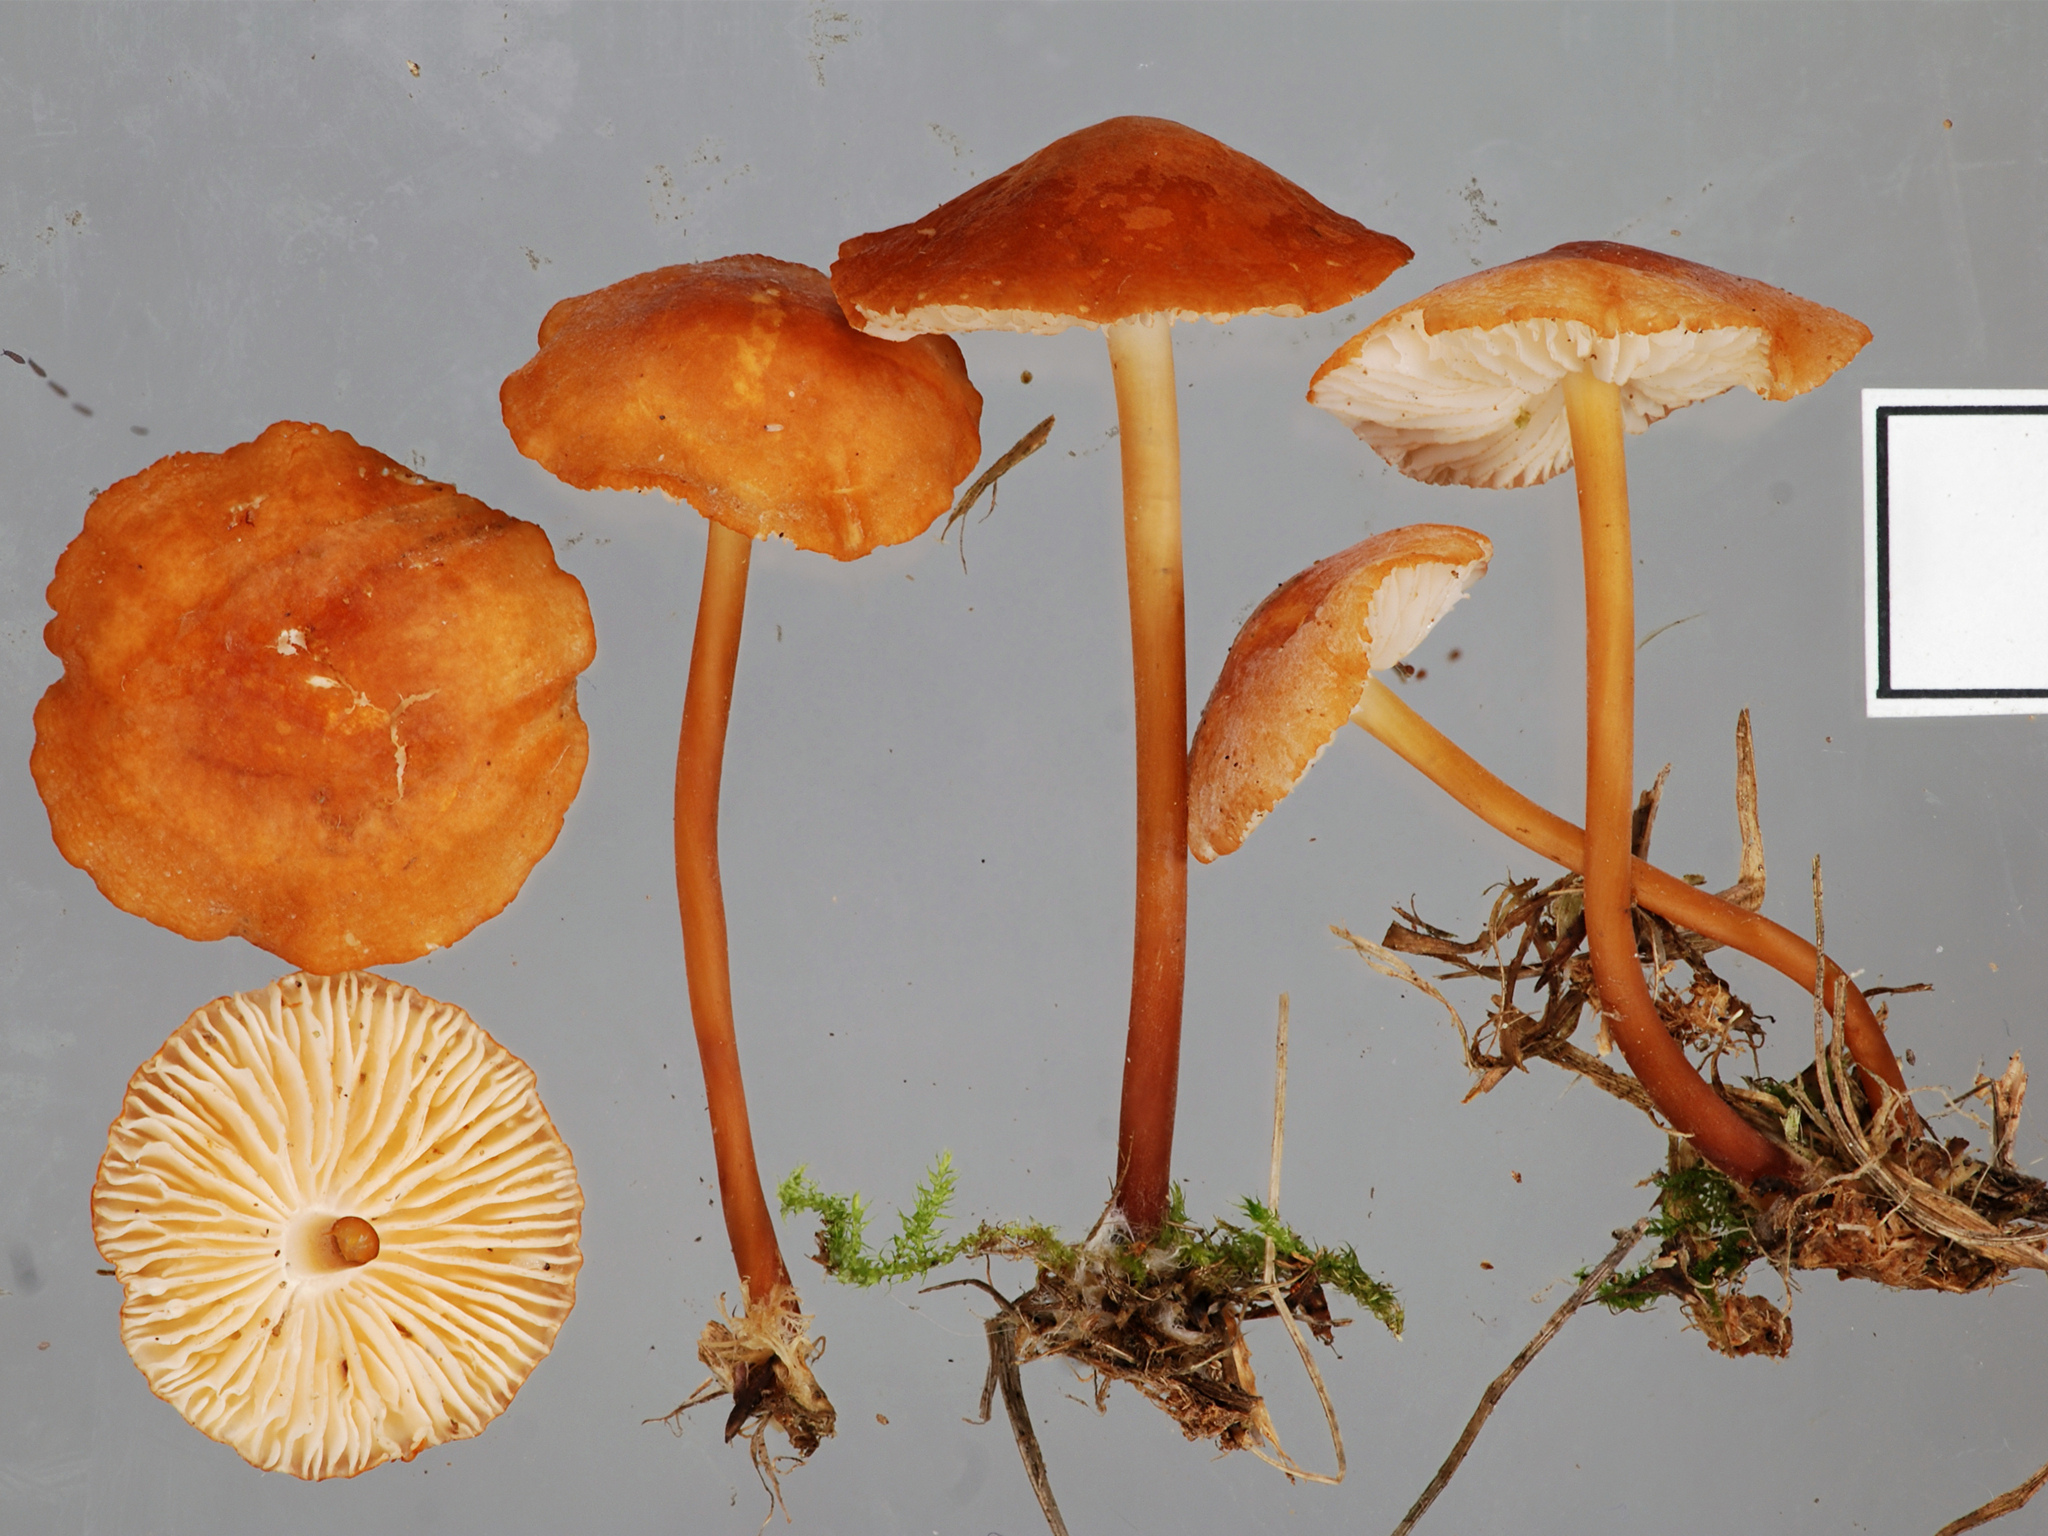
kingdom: Fungi
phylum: Basidiomycota
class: Agaricomycetes
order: Agaricales
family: Marasmiaceae
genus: Marasmius
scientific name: Marasmius elegans
